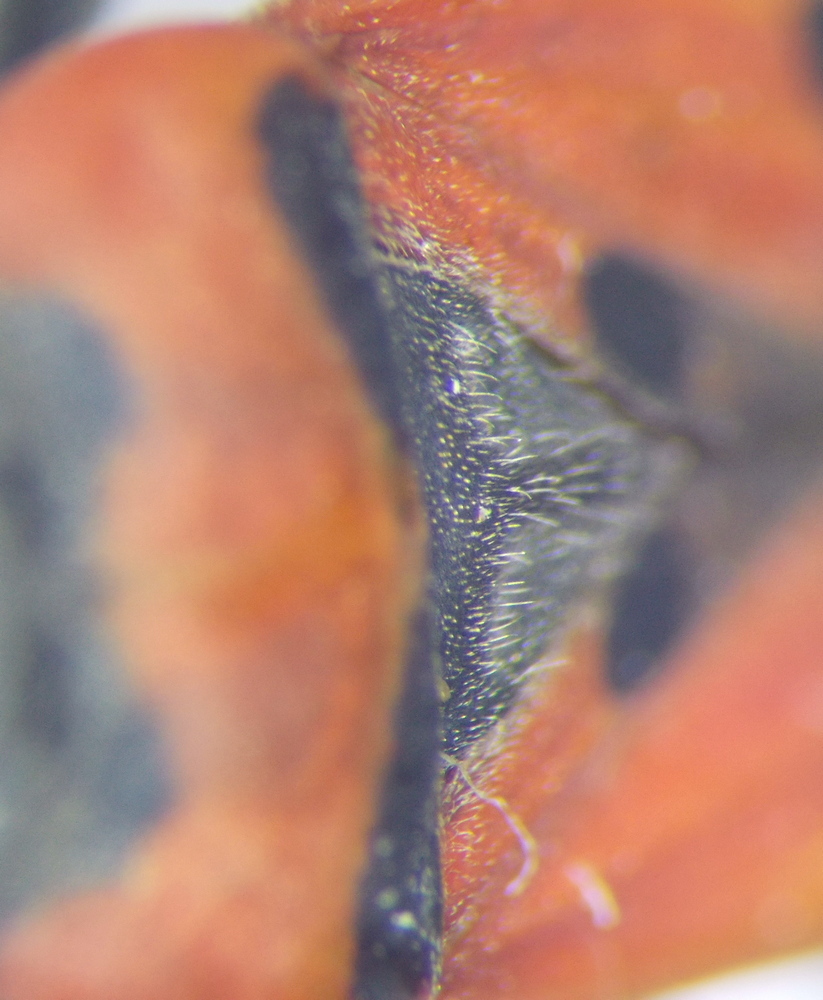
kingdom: Animalia
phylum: Arthropoda
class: Insecta
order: Hemiptera
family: Lygaeidae
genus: Lygaeus
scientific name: Lygaeus simulans
